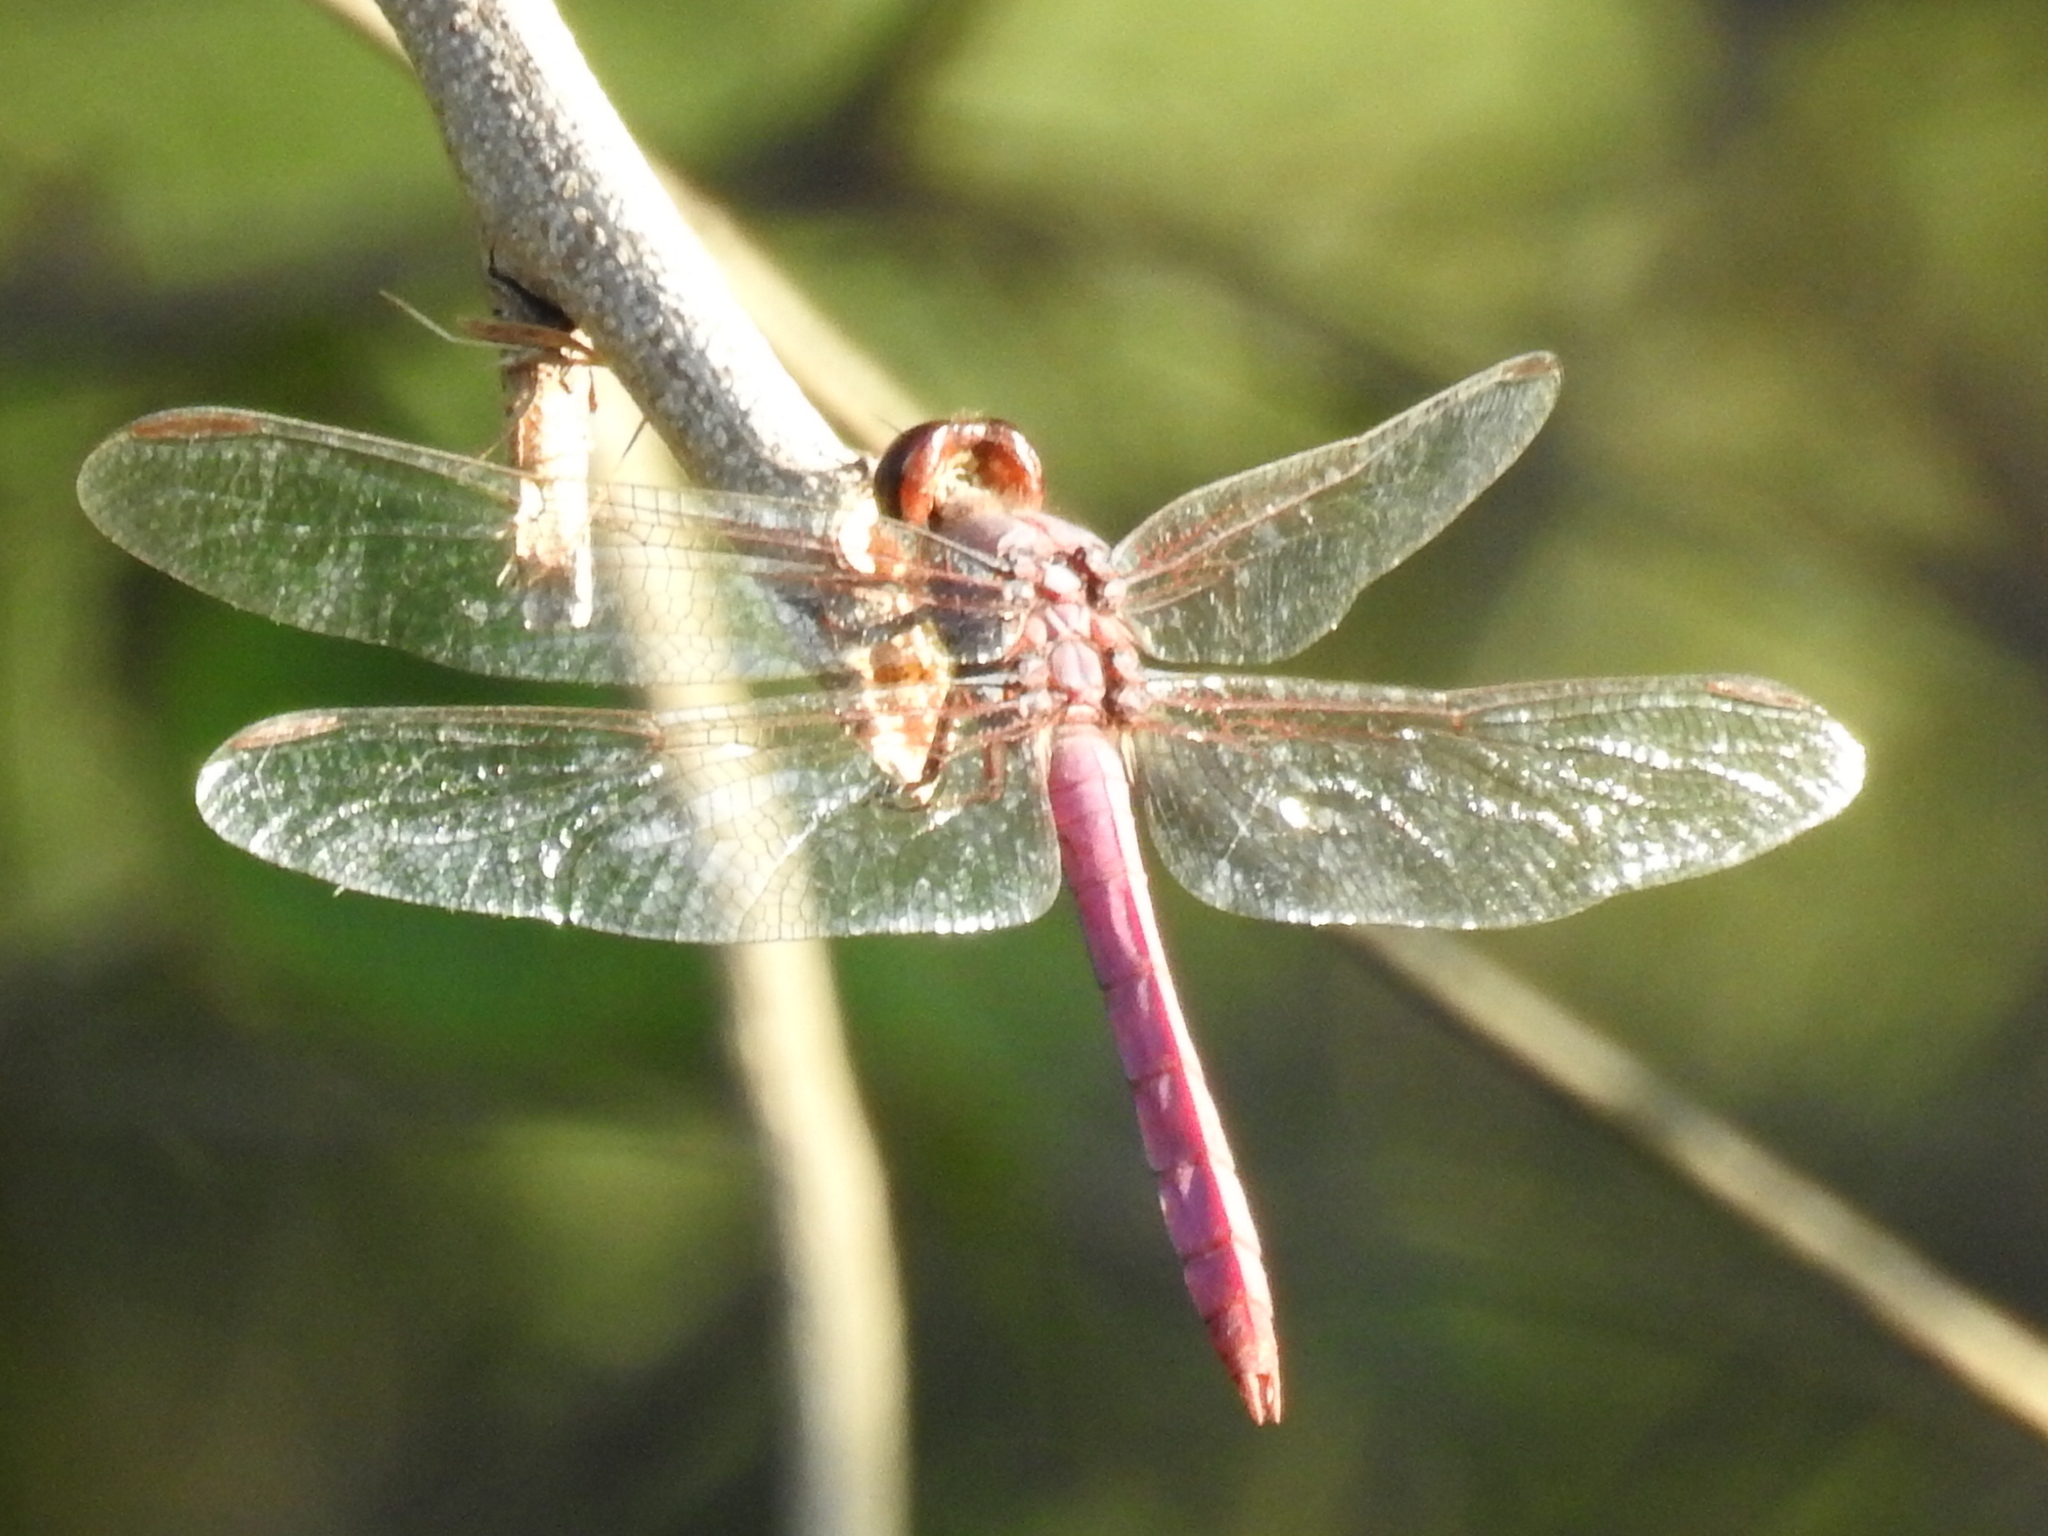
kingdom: Animalia
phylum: Arthropoda
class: Insecta
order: Odonata
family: Libellulidae
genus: Orthemis
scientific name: Orthemis ferruginea
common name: Roseate skimmer
